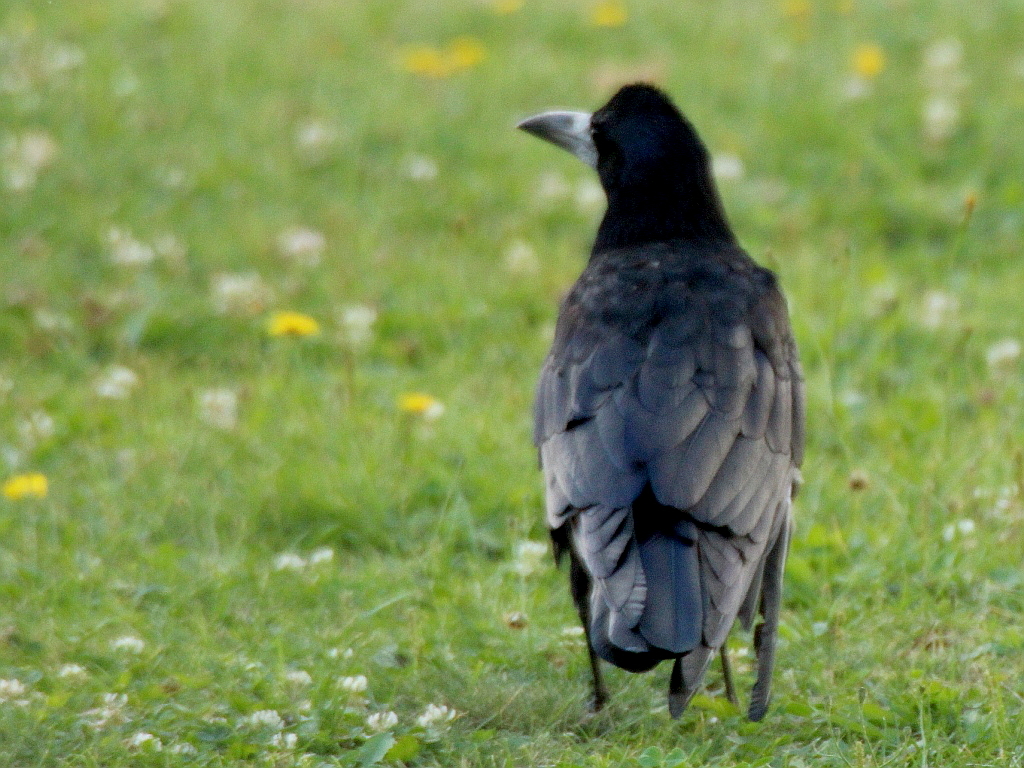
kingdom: Animalia
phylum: Chordata
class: Aves
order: Passeriformes
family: Corvidae
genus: Corvus
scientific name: Corvus frugilegus
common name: Rook
